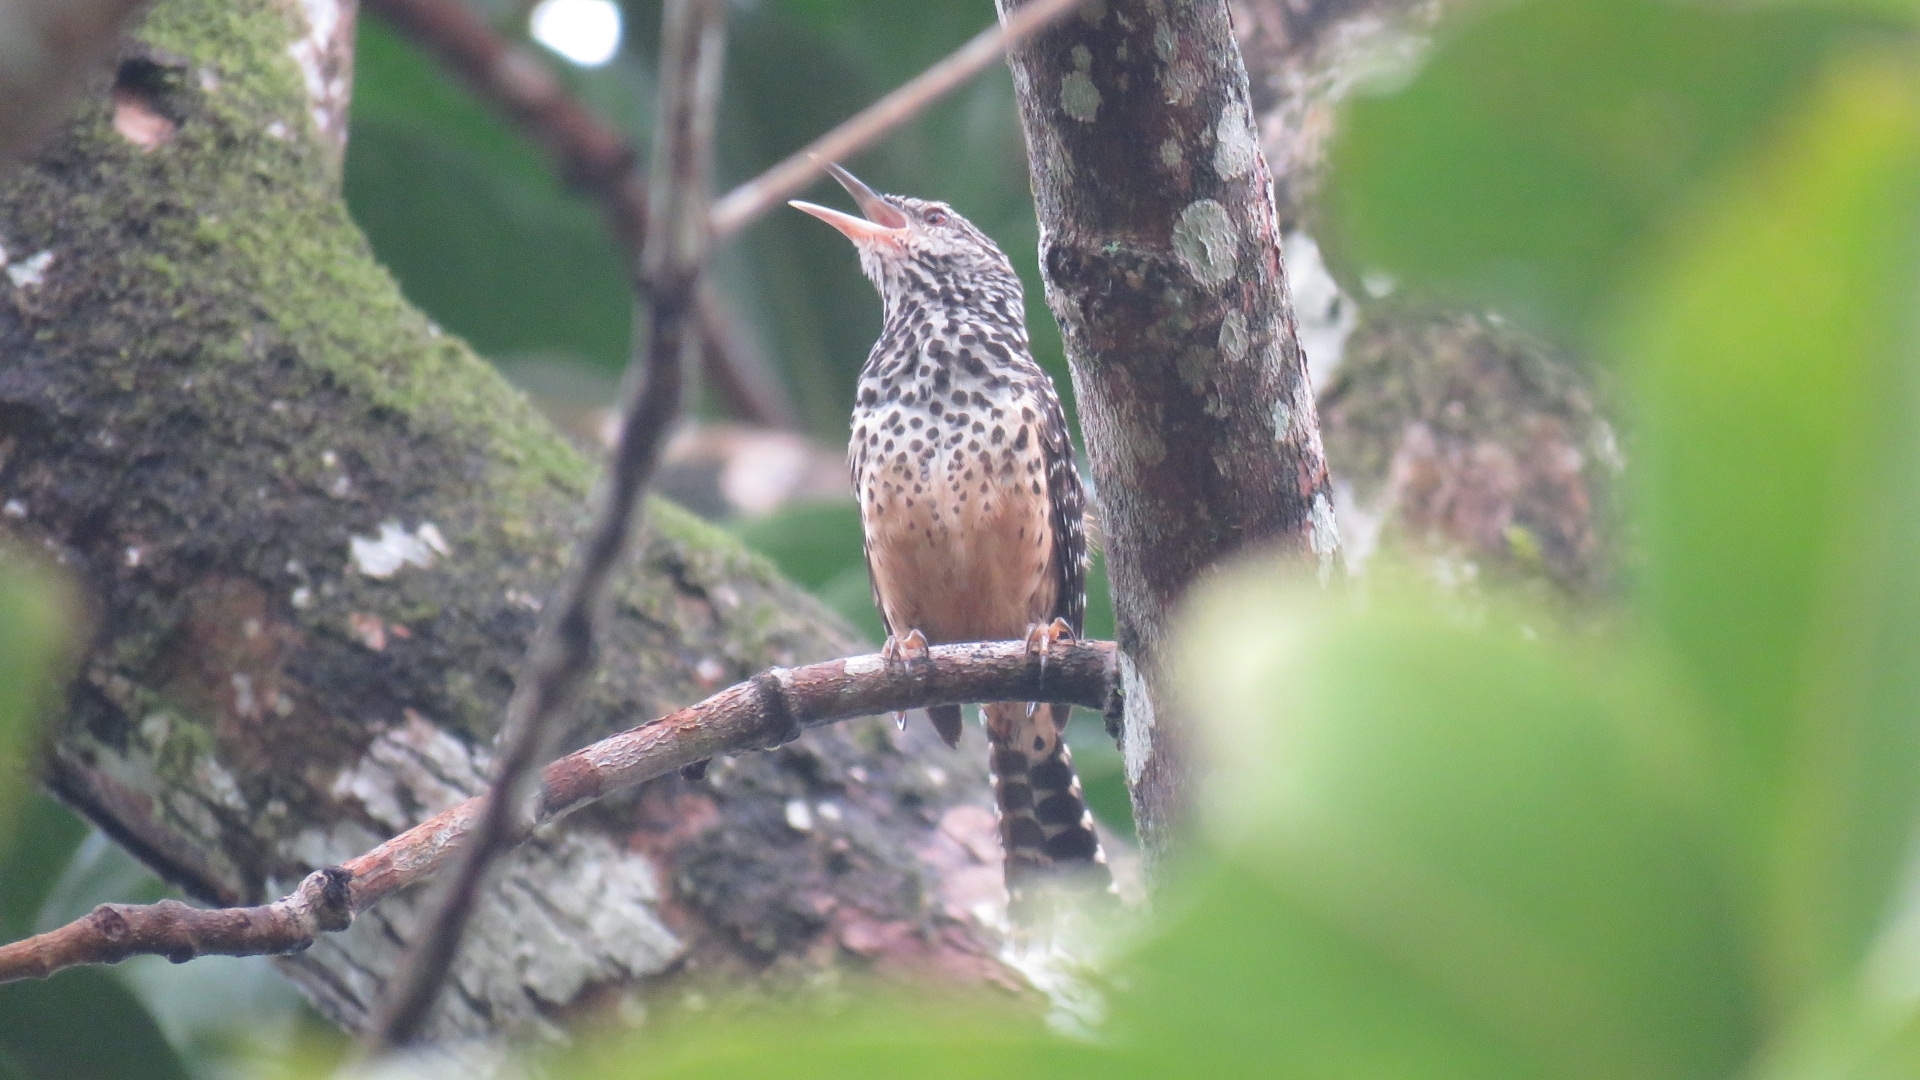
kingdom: Animalia
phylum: Chordata
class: Aves
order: Passeriformes
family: Troglodytidae
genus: Campylorhynchus
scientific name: Campylorhynchus zonatus
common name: Band-backed wren
